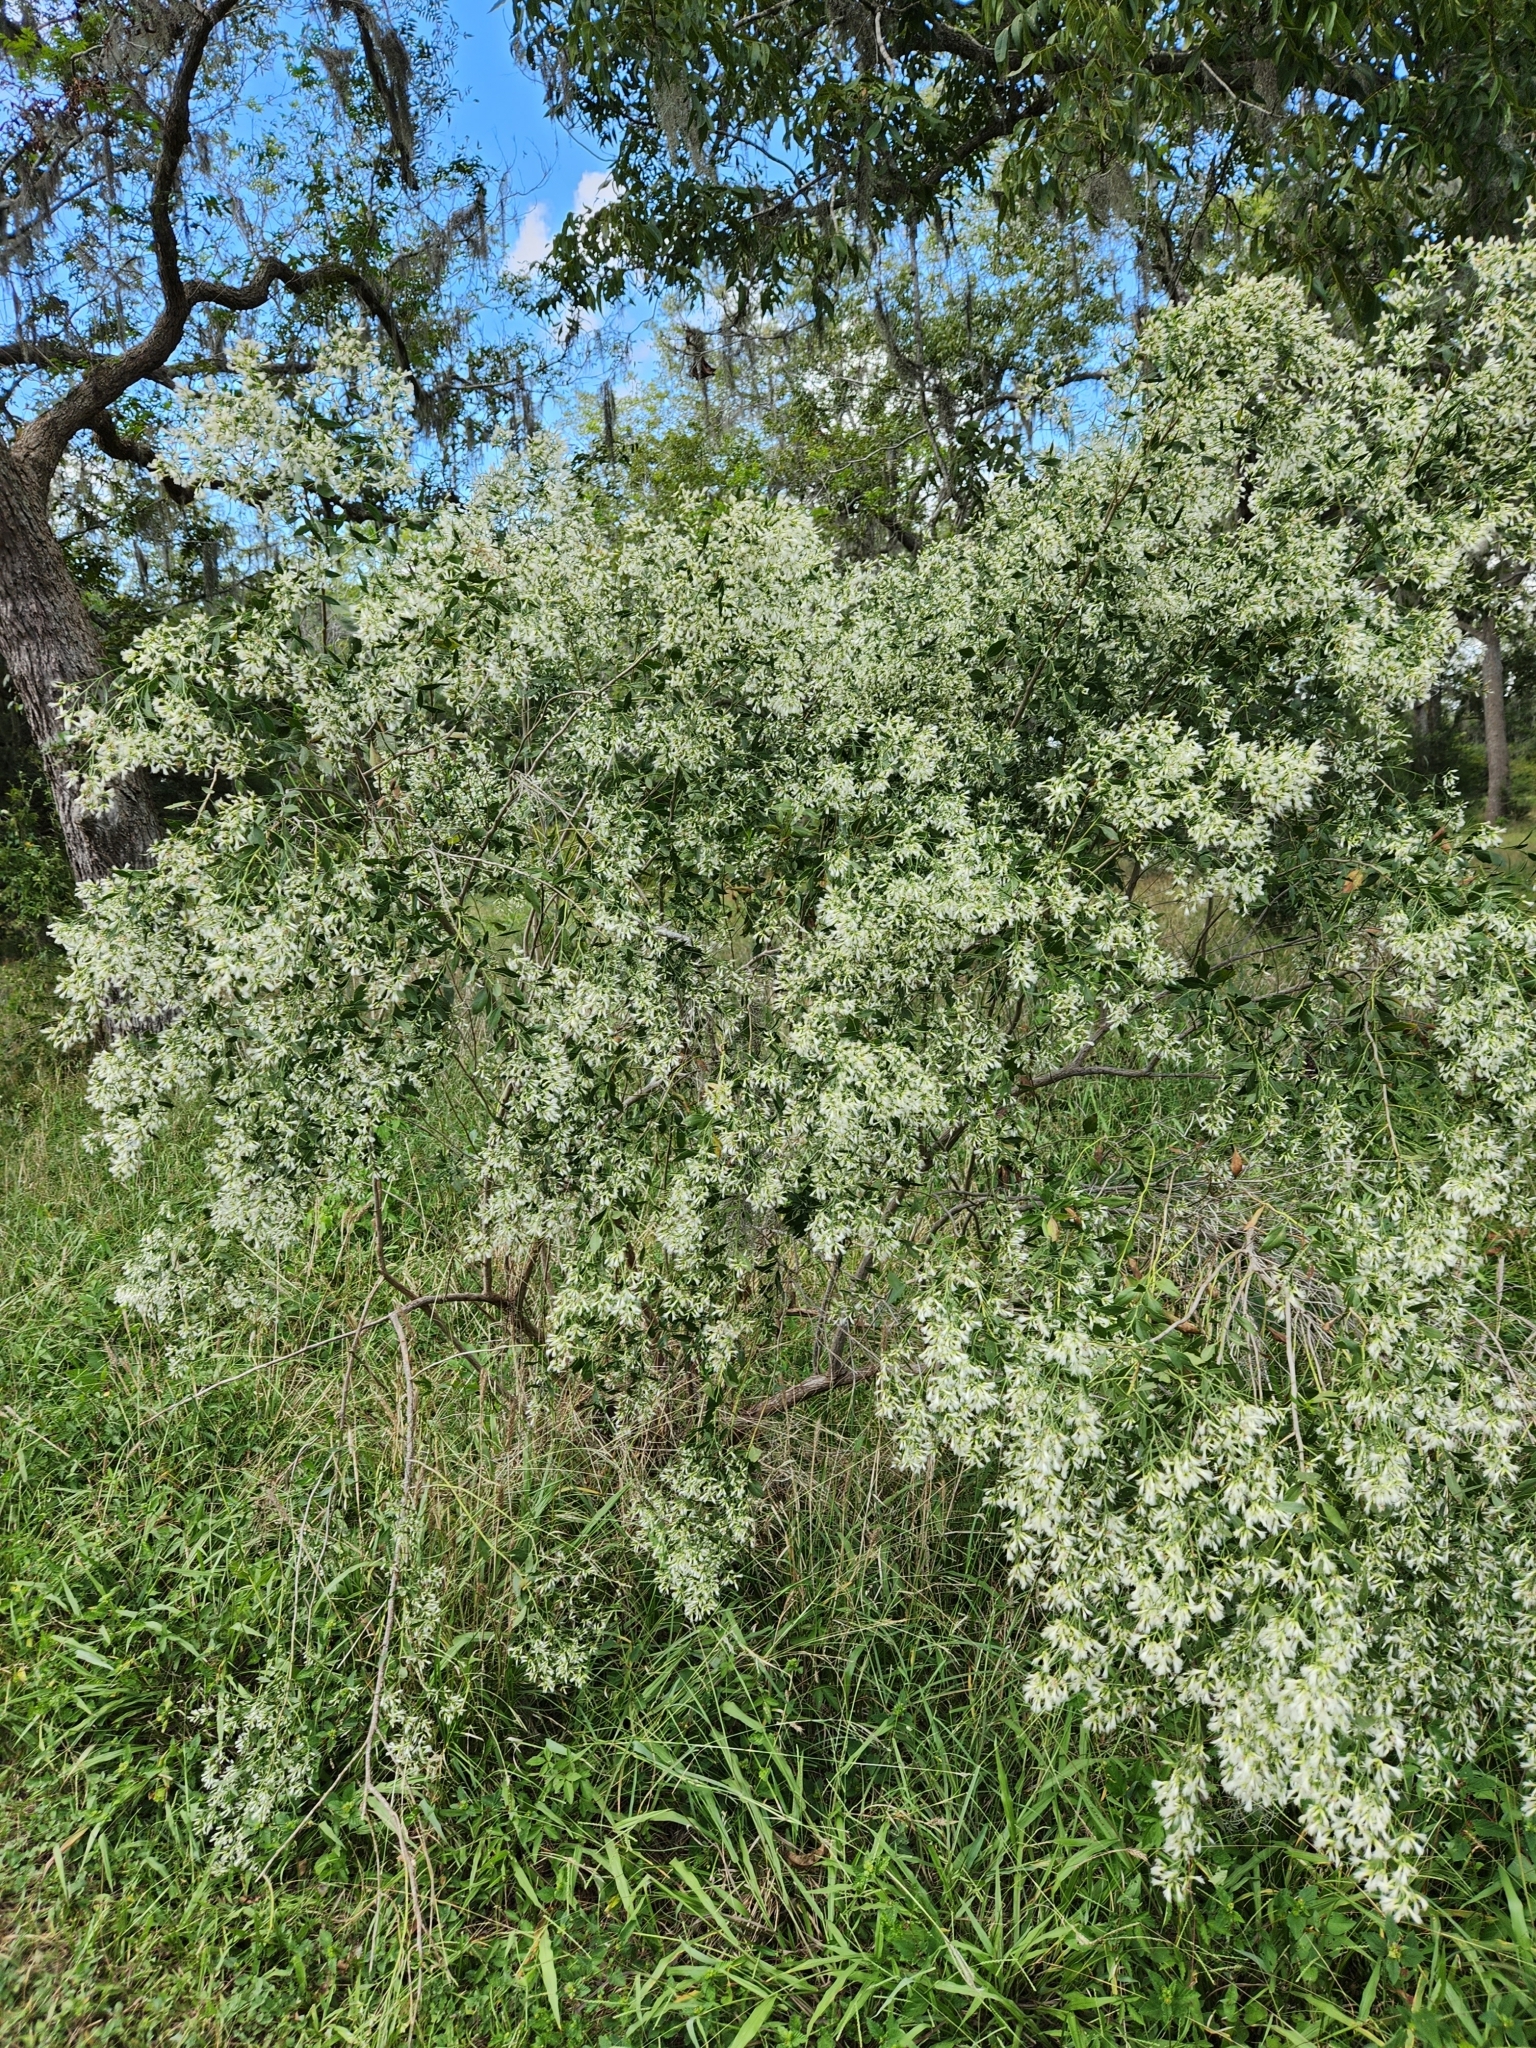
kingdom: Plantae
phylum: Tracheophyta
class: Magnoliopsida
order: Asterales
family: Asteraceae
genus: Baccharis
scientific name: Baccharis halimifolia
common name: Eastern baccharis
